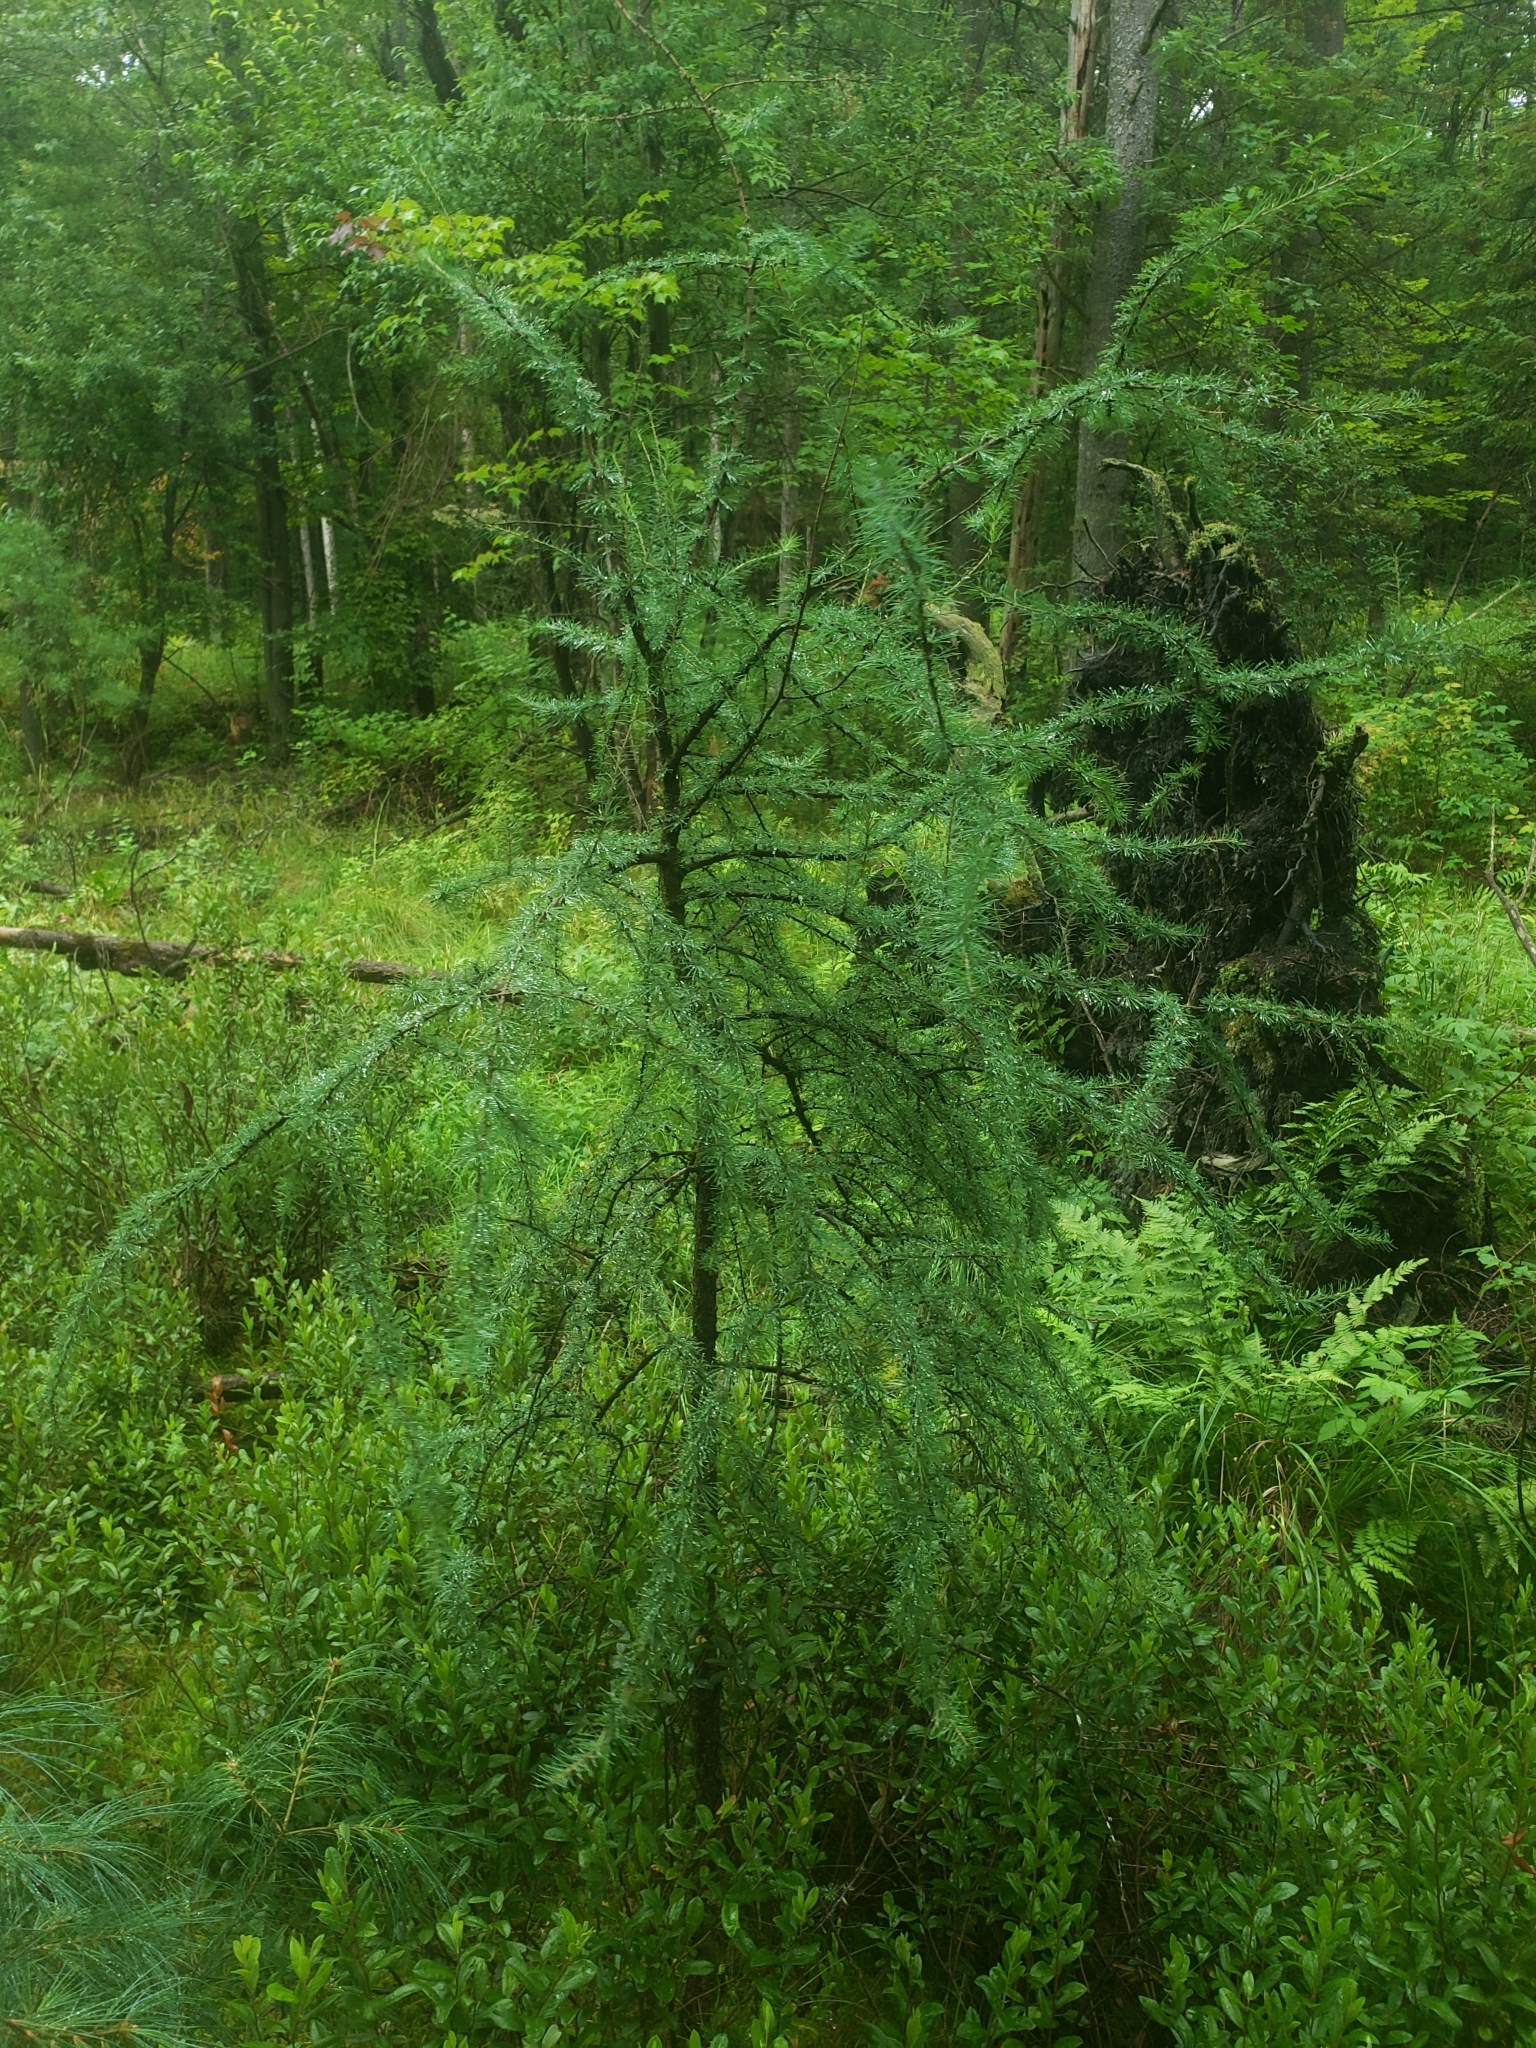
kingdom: Plantae
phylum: Tracheophyta
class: Pinopsida
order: Pinales
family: Pinaceae
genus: Larix
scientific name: Larix laricina
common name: American larch
